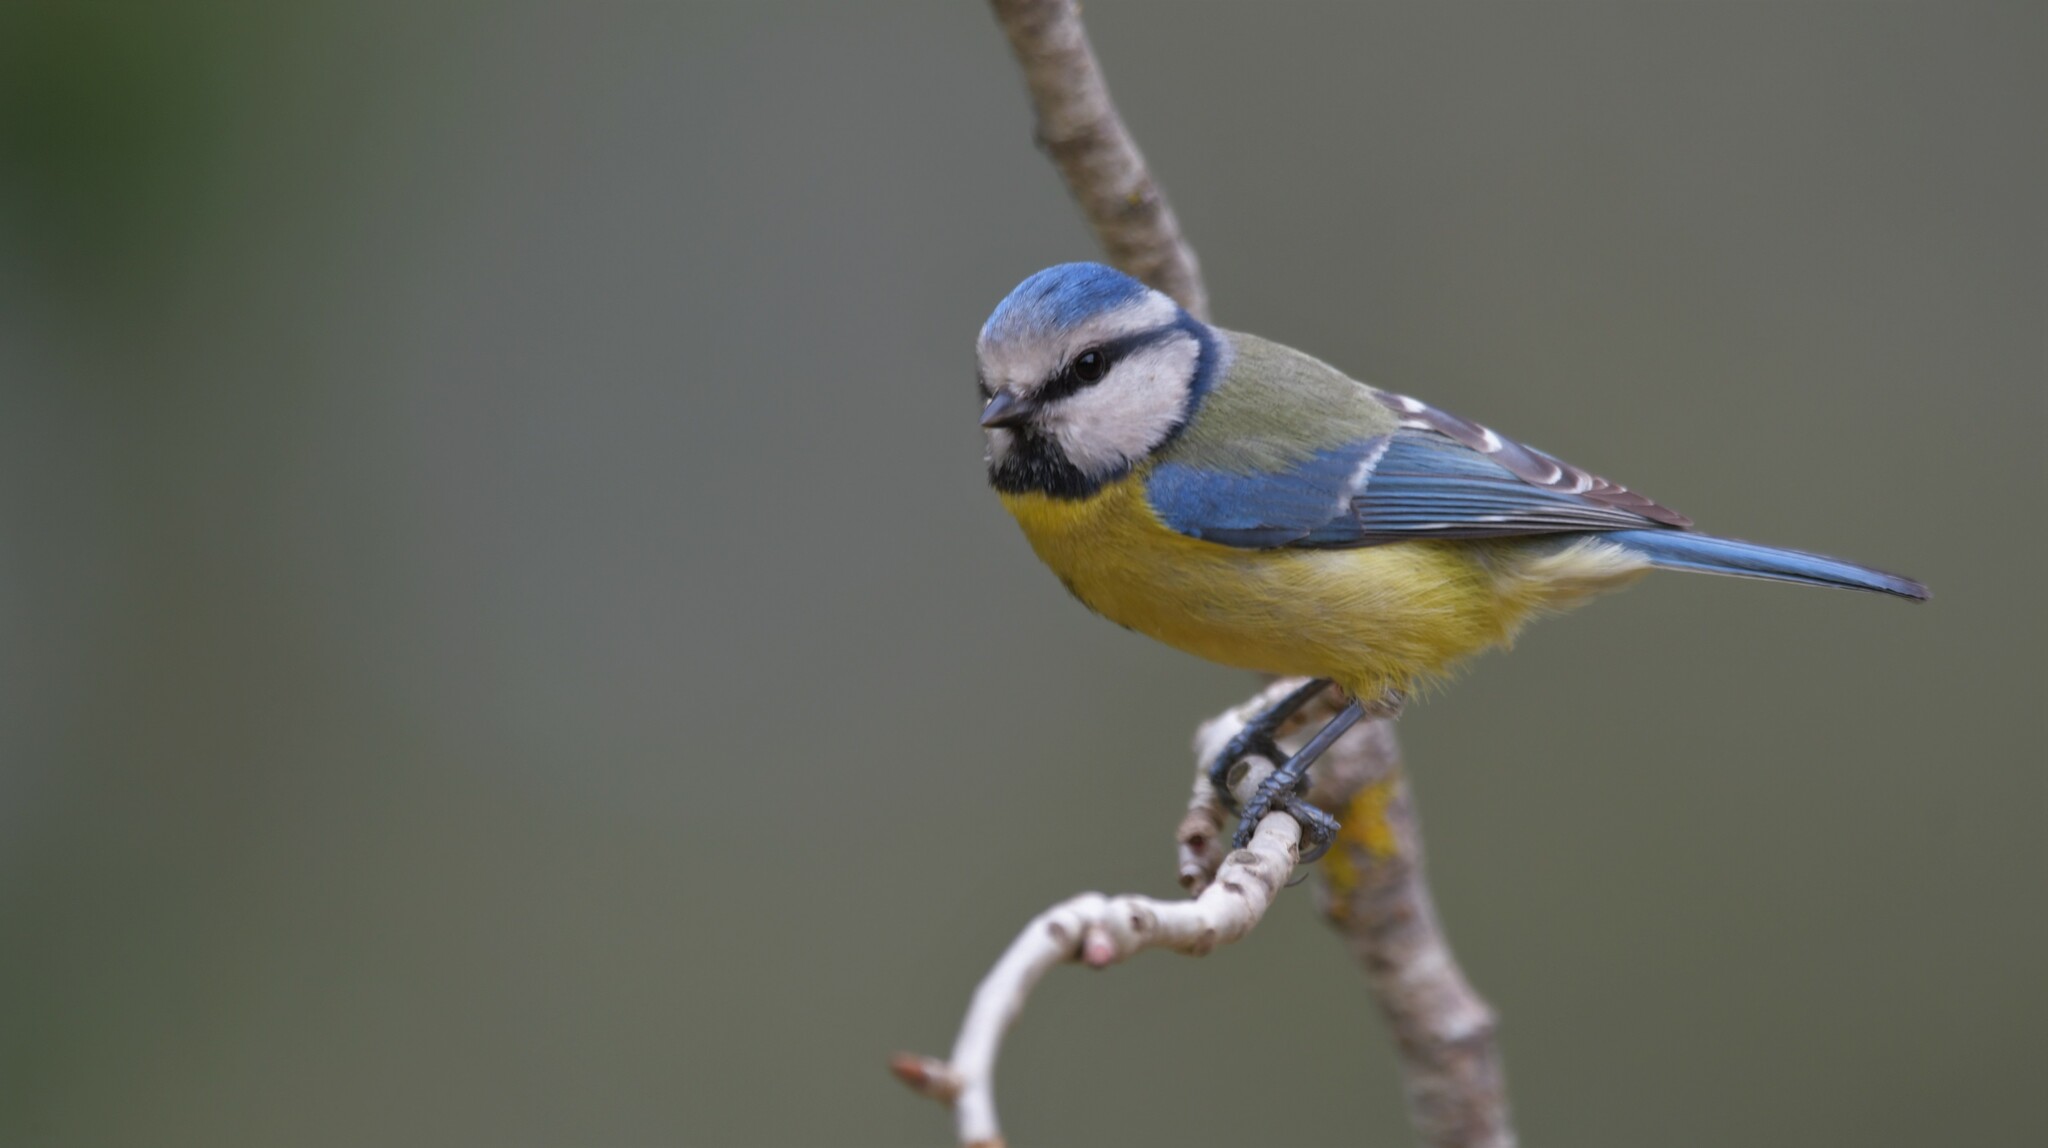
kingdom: Animalia
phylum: Chordata
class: Aves
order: Passeriformes
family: Paridae
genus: Cyanistes
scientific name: Cyanistes caeruleus
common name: Eurasian blue tit
